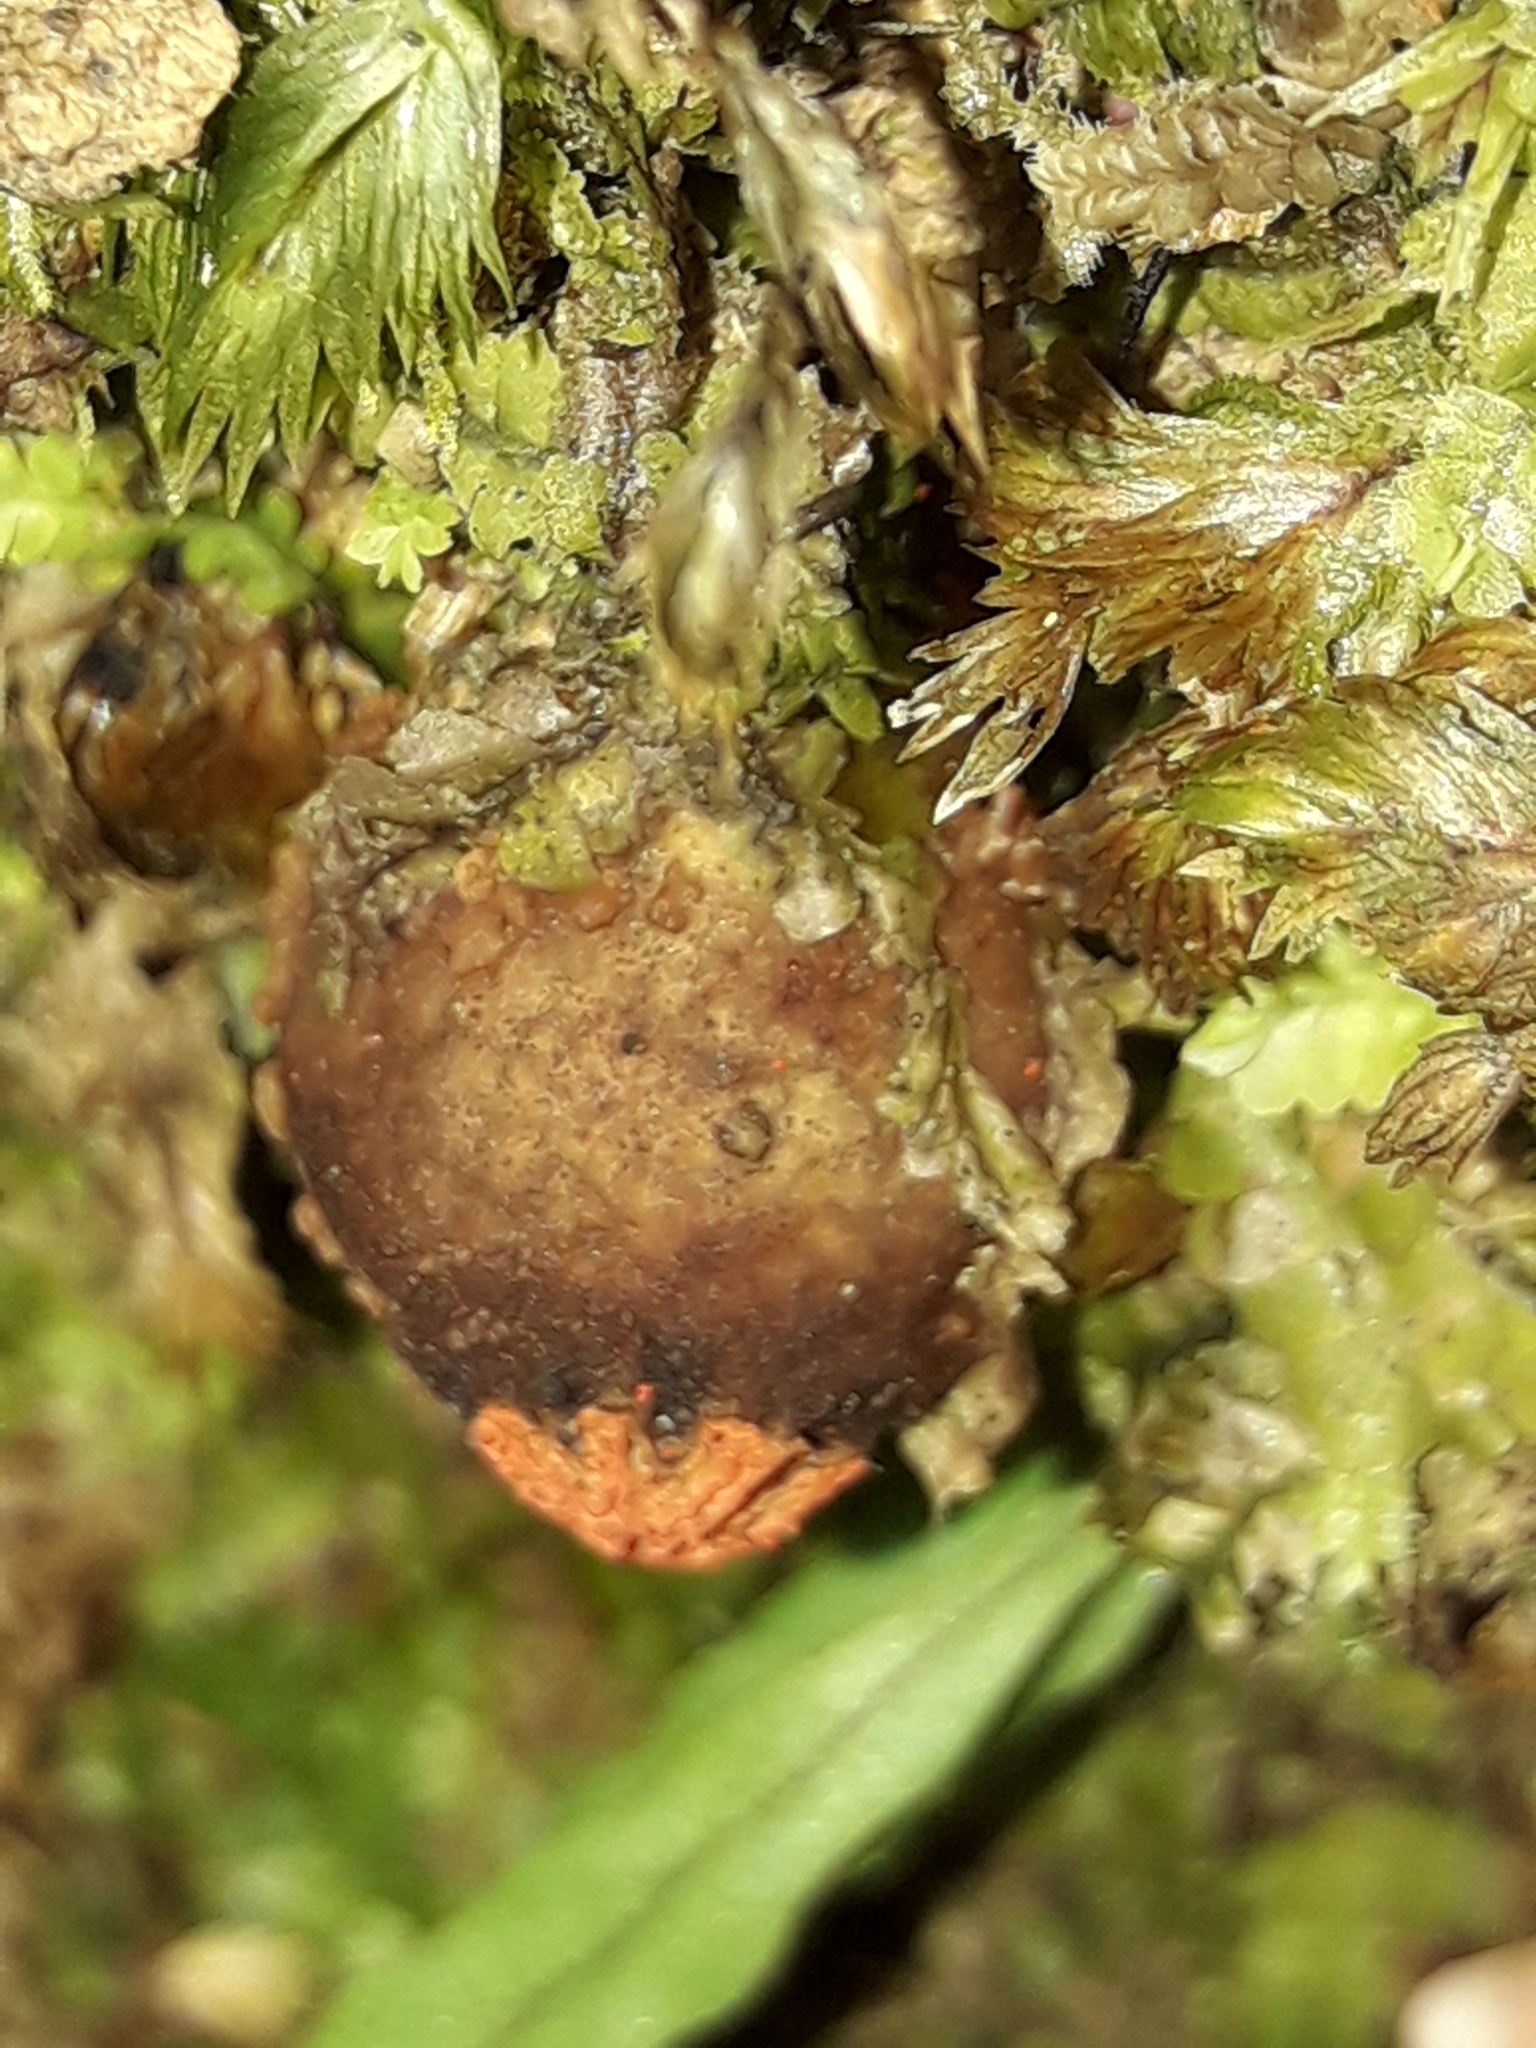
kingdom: Fungi
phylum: Basidiomycota
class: Agaricomycetes
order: Boletales
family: Calostomataceae
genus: Calostoma
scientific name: Calostoma rodwayi
